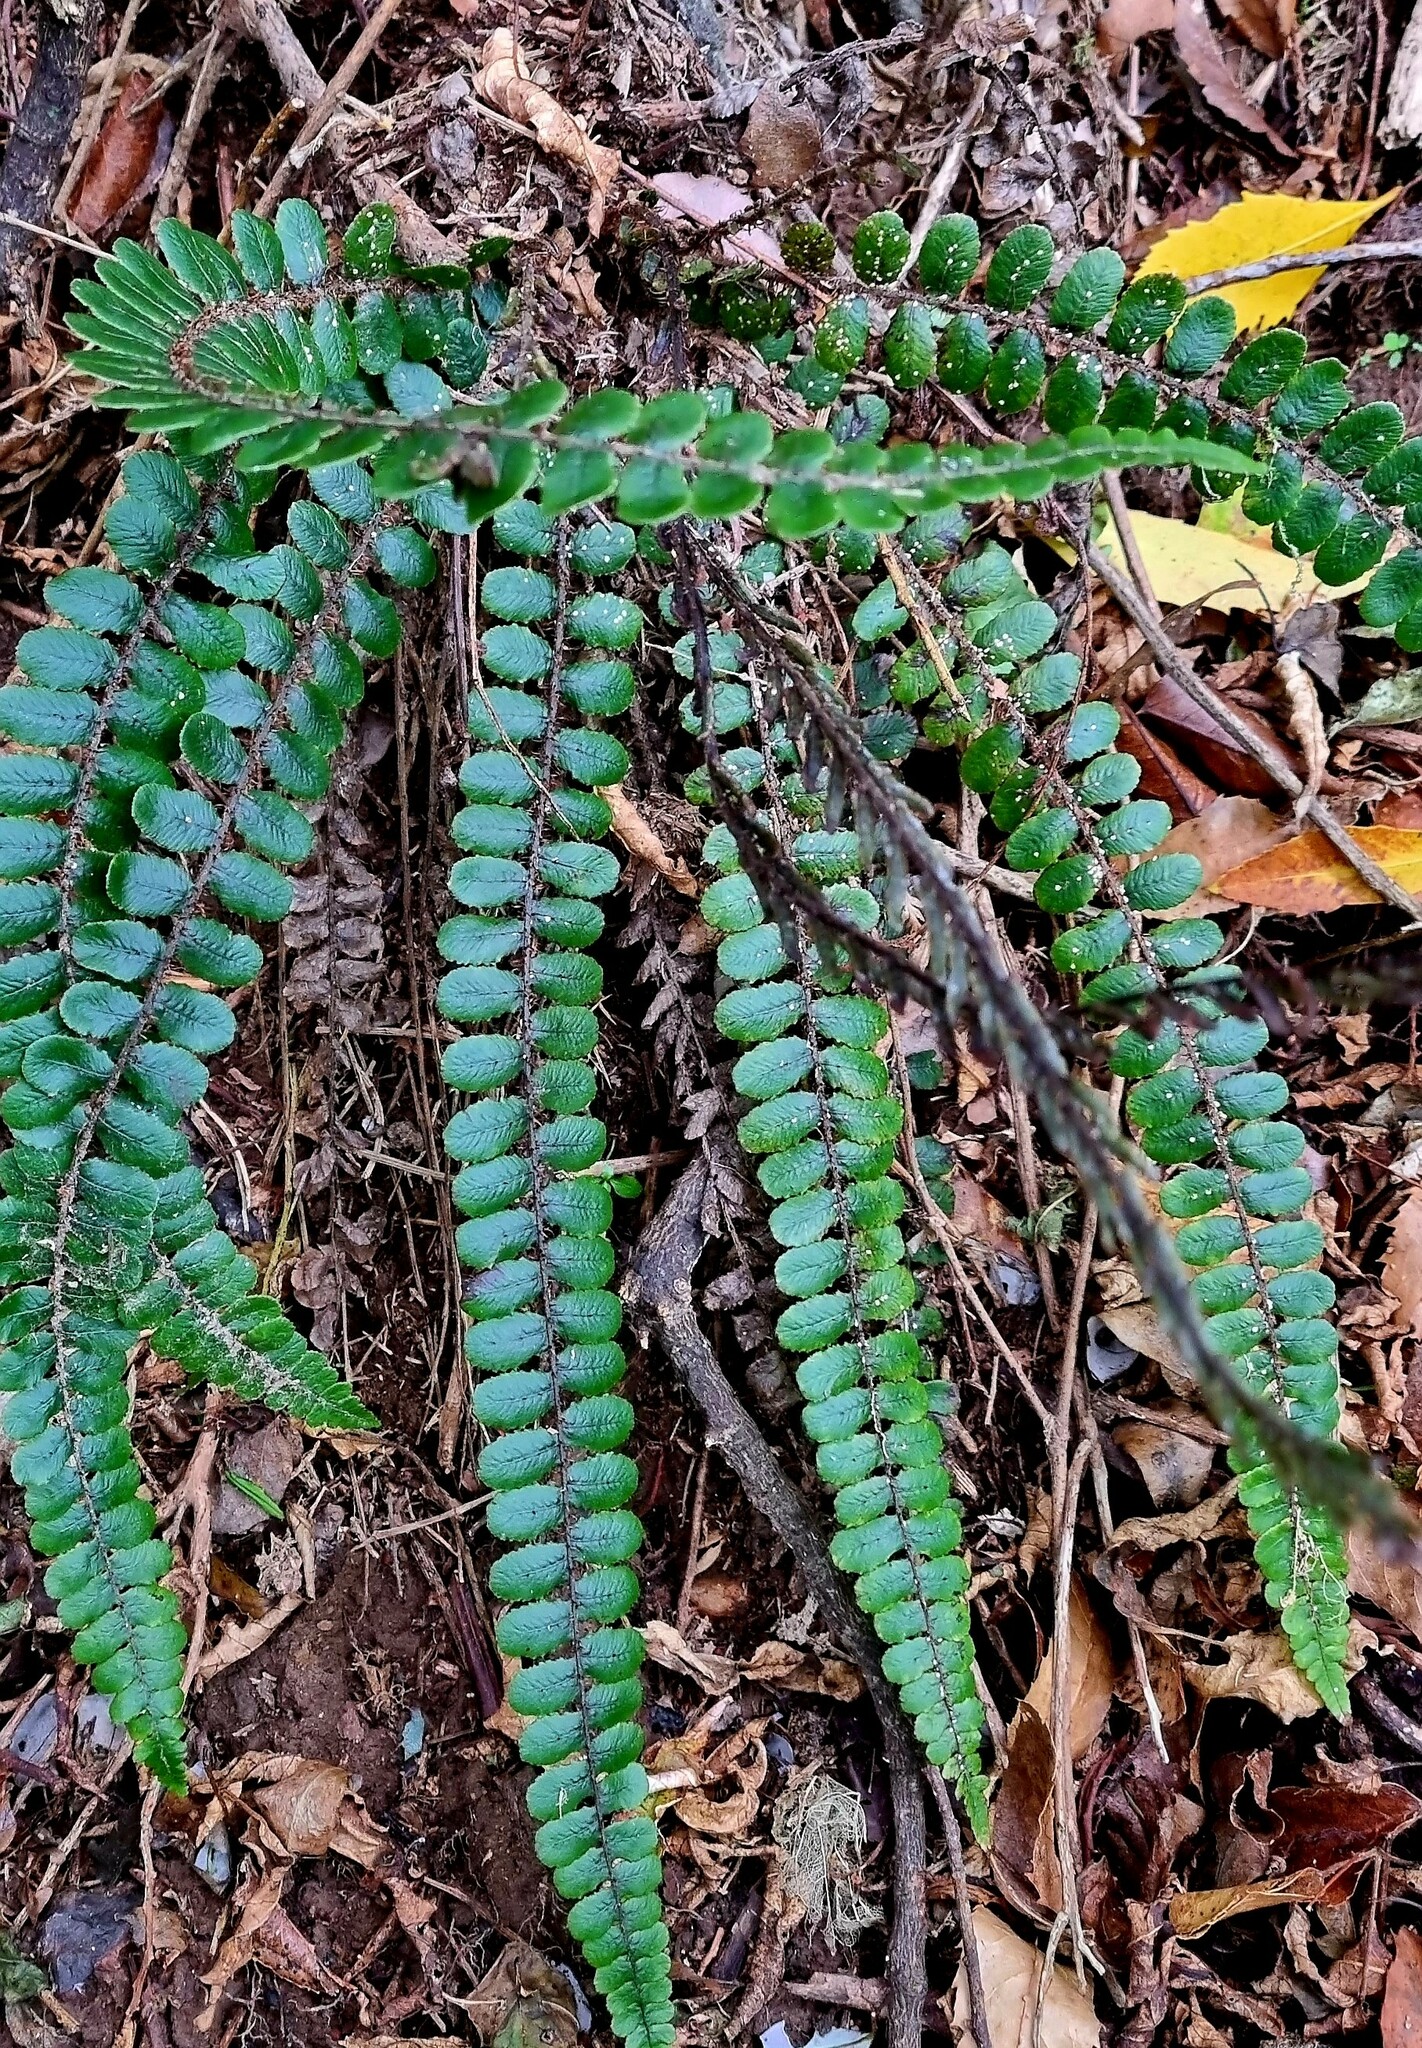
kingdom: Plantae
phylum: Tracheophyta
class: Polypodiopsida
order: Polypodiales
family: Blechnaceae
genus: Cranfillia
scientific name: Cranfillia fluviatilis
